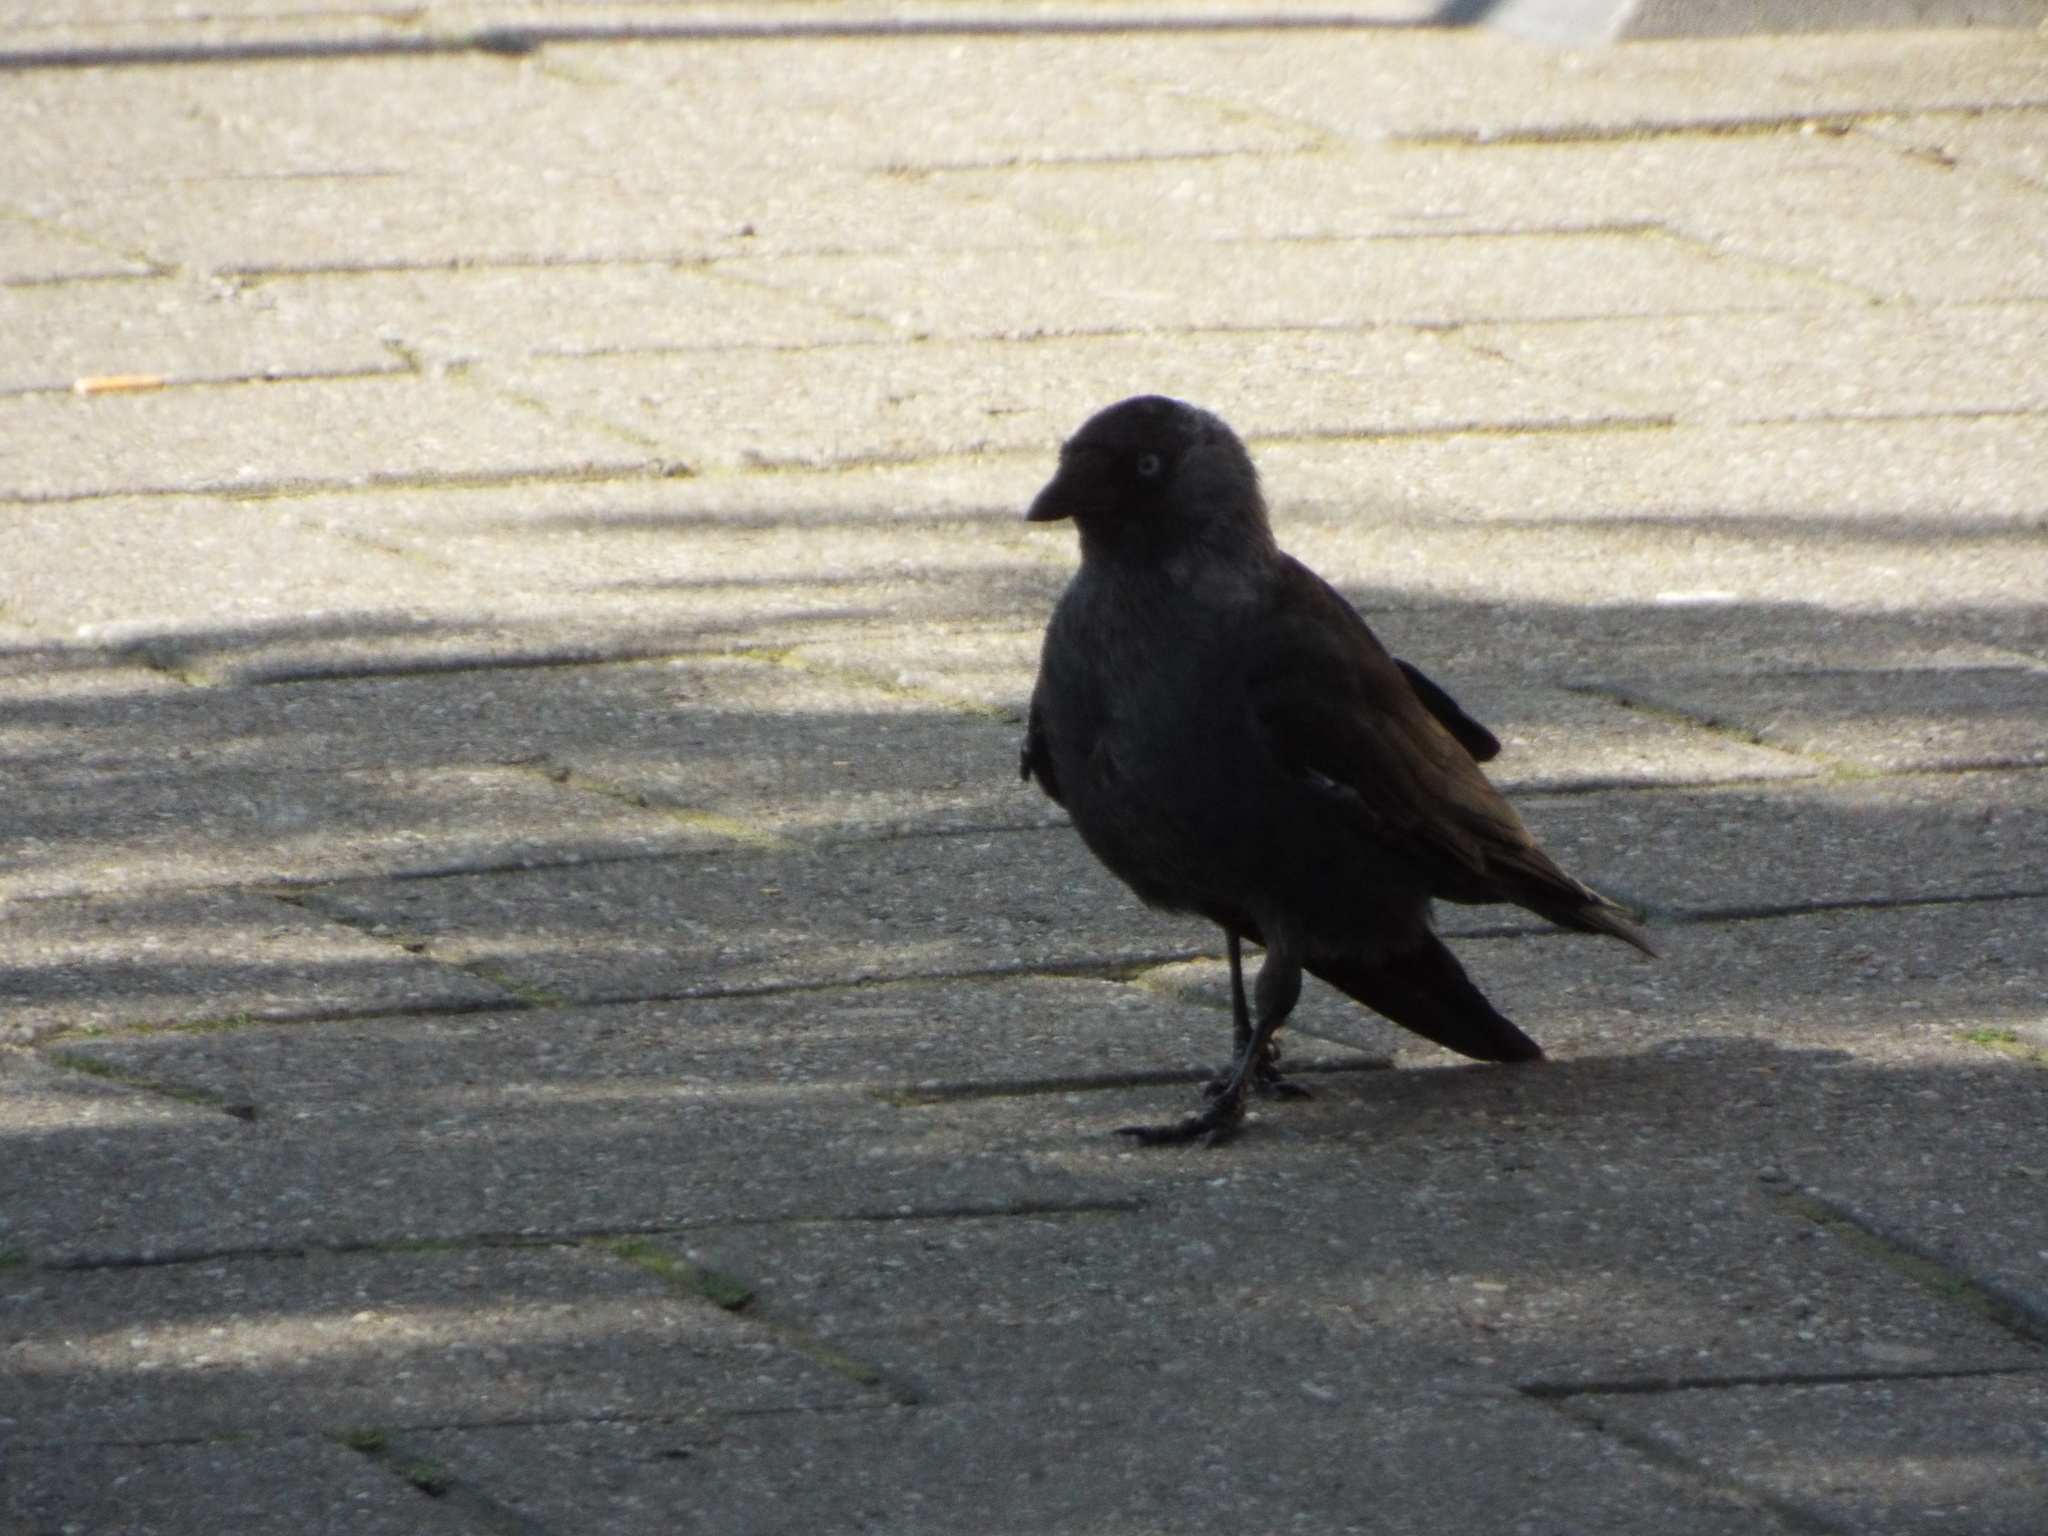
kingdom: Animalia
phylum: Chordata
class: Aves
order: Passeriformes
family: Corvidae
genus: Coloeus
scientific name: Coloeus monedula
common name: Western jackdaw
